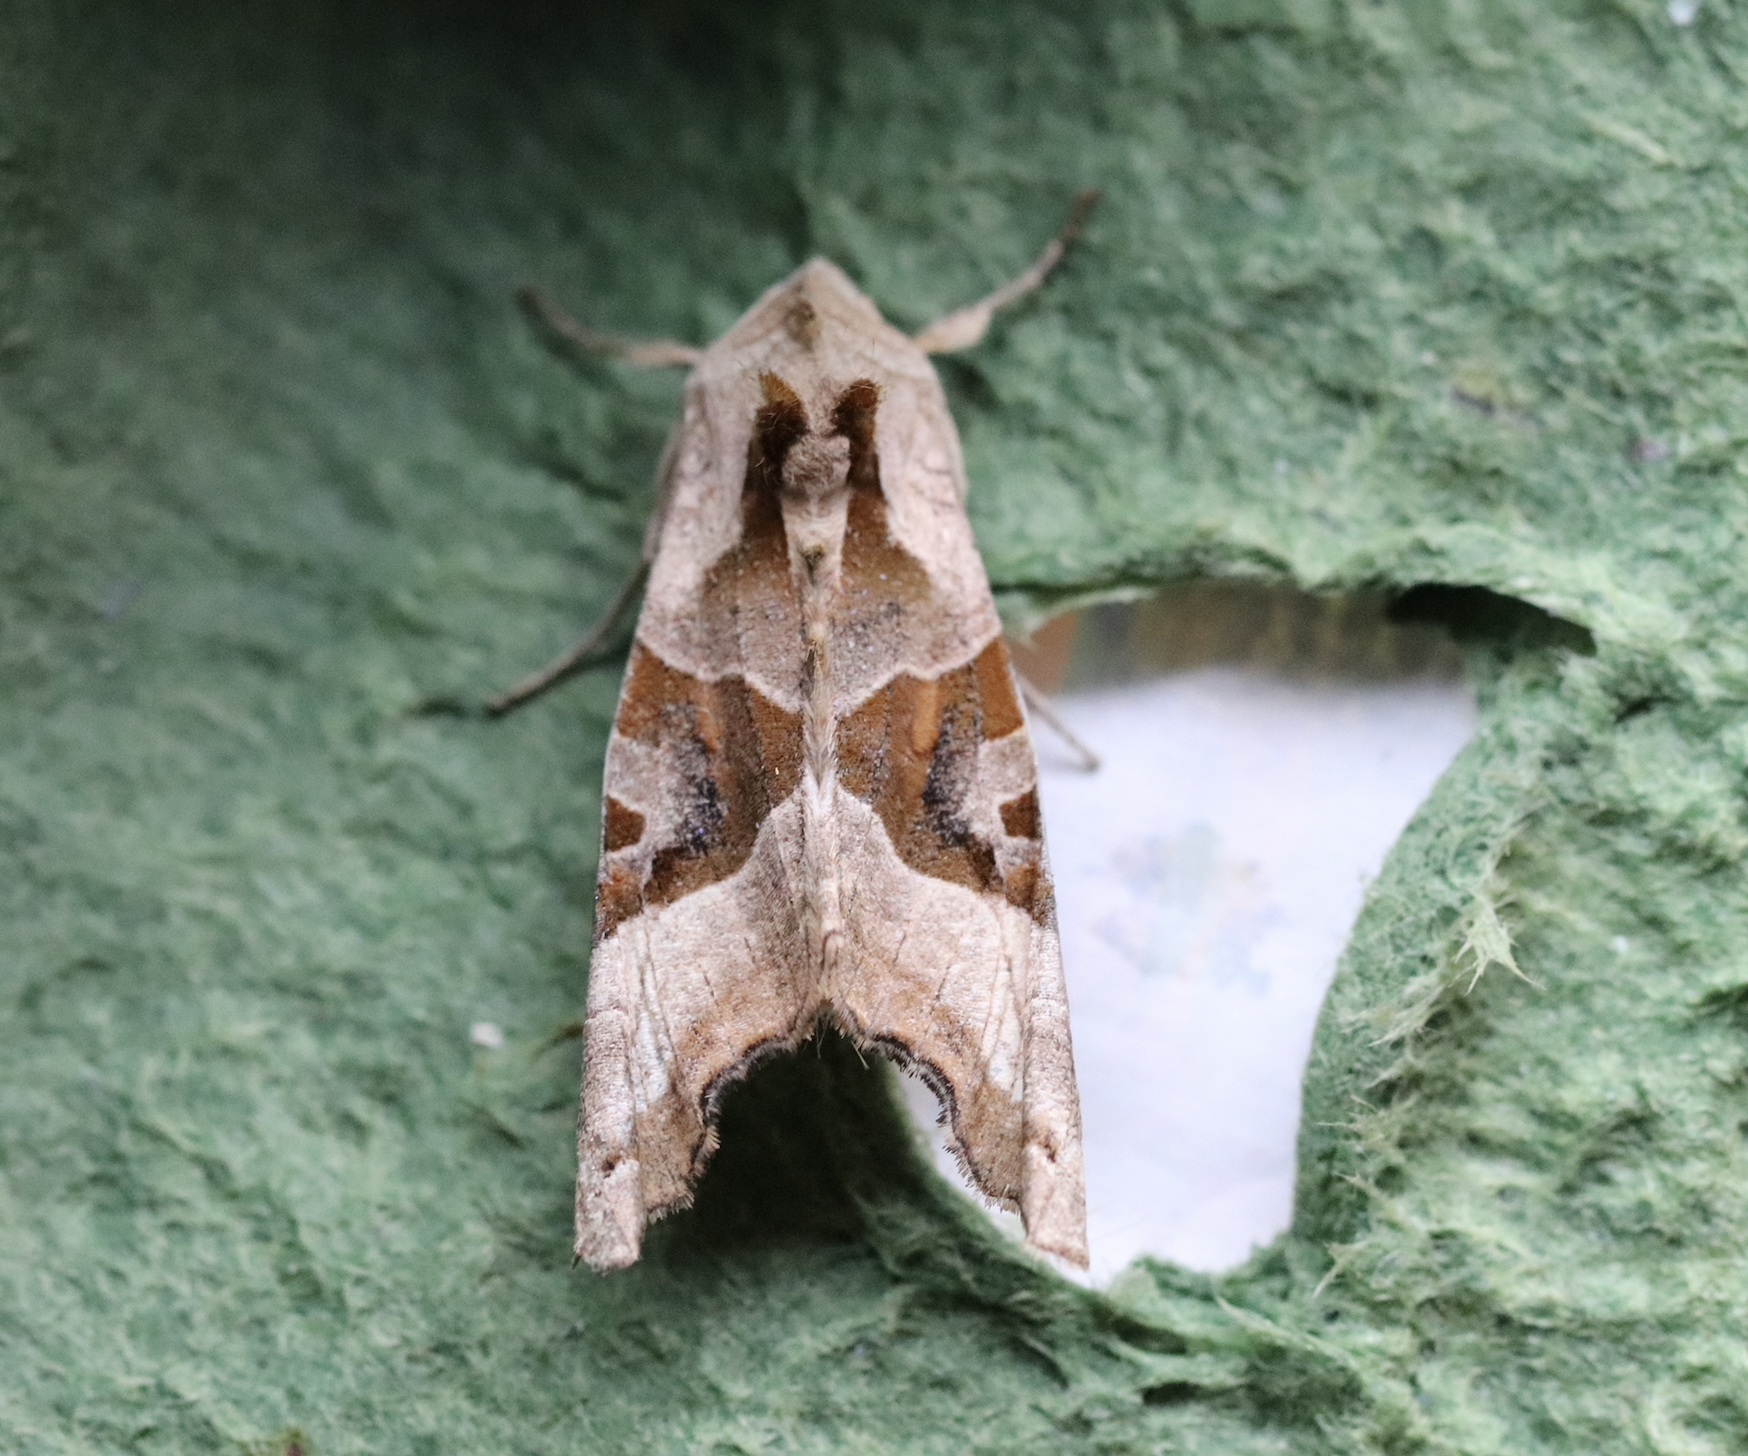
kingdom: Animalia
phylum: Arthropoda
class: Insecta
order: Lepidoptera
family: Noctuidae
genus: Phlogophora
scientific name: Phlogophora meticulosa
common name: Angle shades
